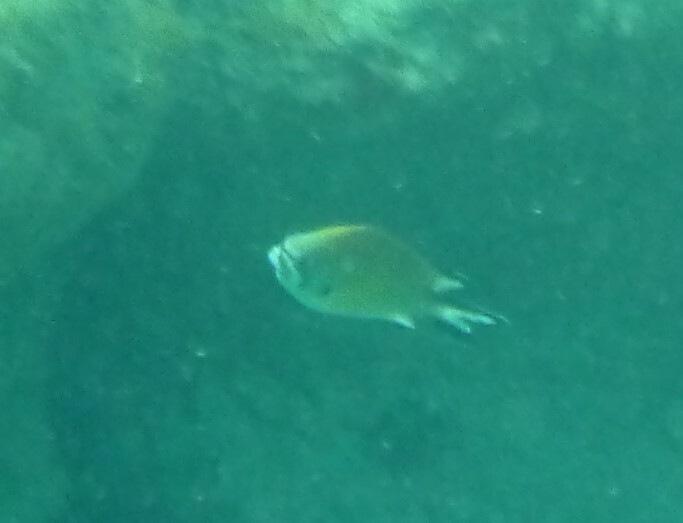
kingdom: Animalia
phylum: Chordata
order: Perciformes
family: Pomacentridae
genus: Chromis
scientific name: Chromis limbata
